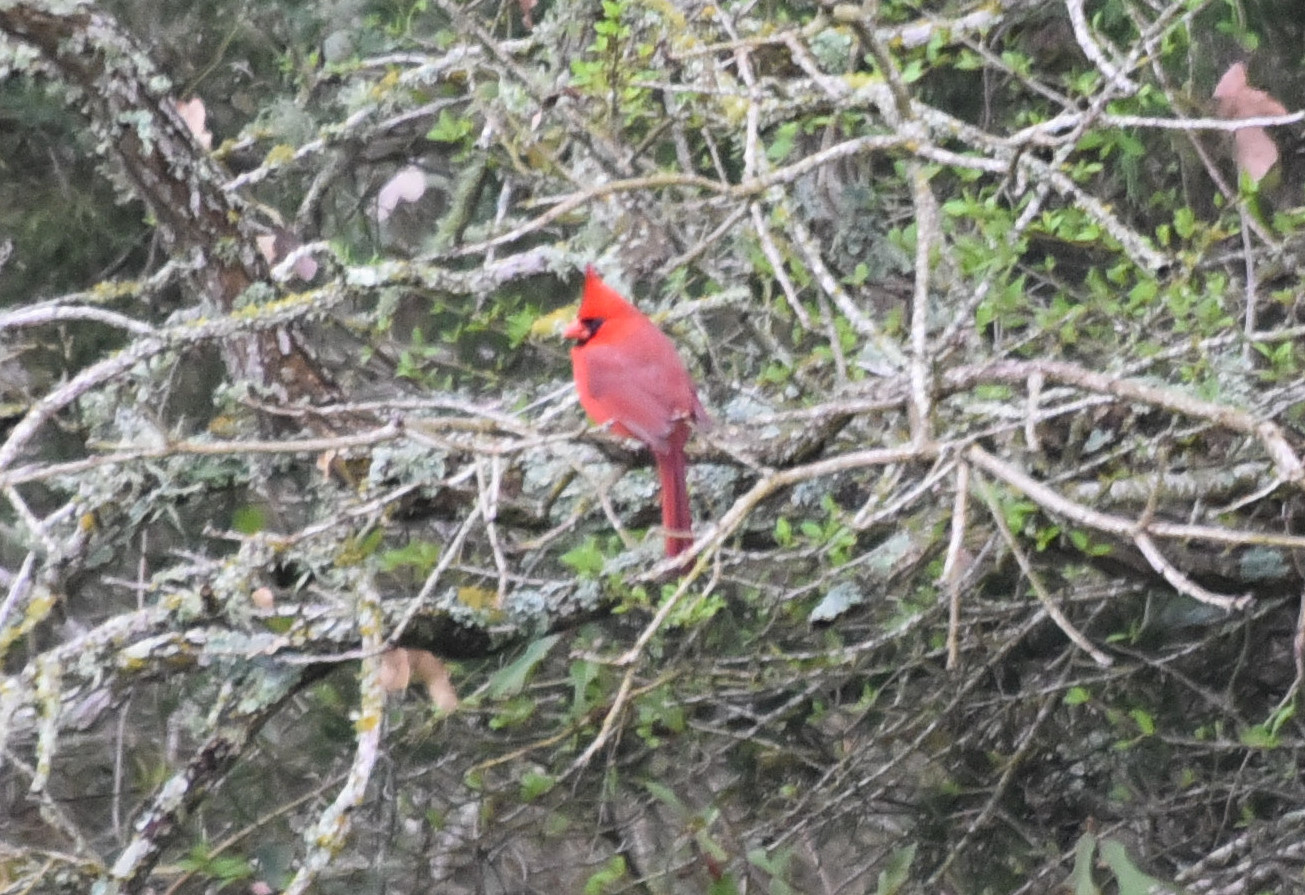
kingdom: Animalia
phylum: Chordata
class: Aves
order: Passeriformes
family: Cardinalidae
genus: Cardinalis
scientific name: Cardinalis cardinalis
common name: Northern cardinal
